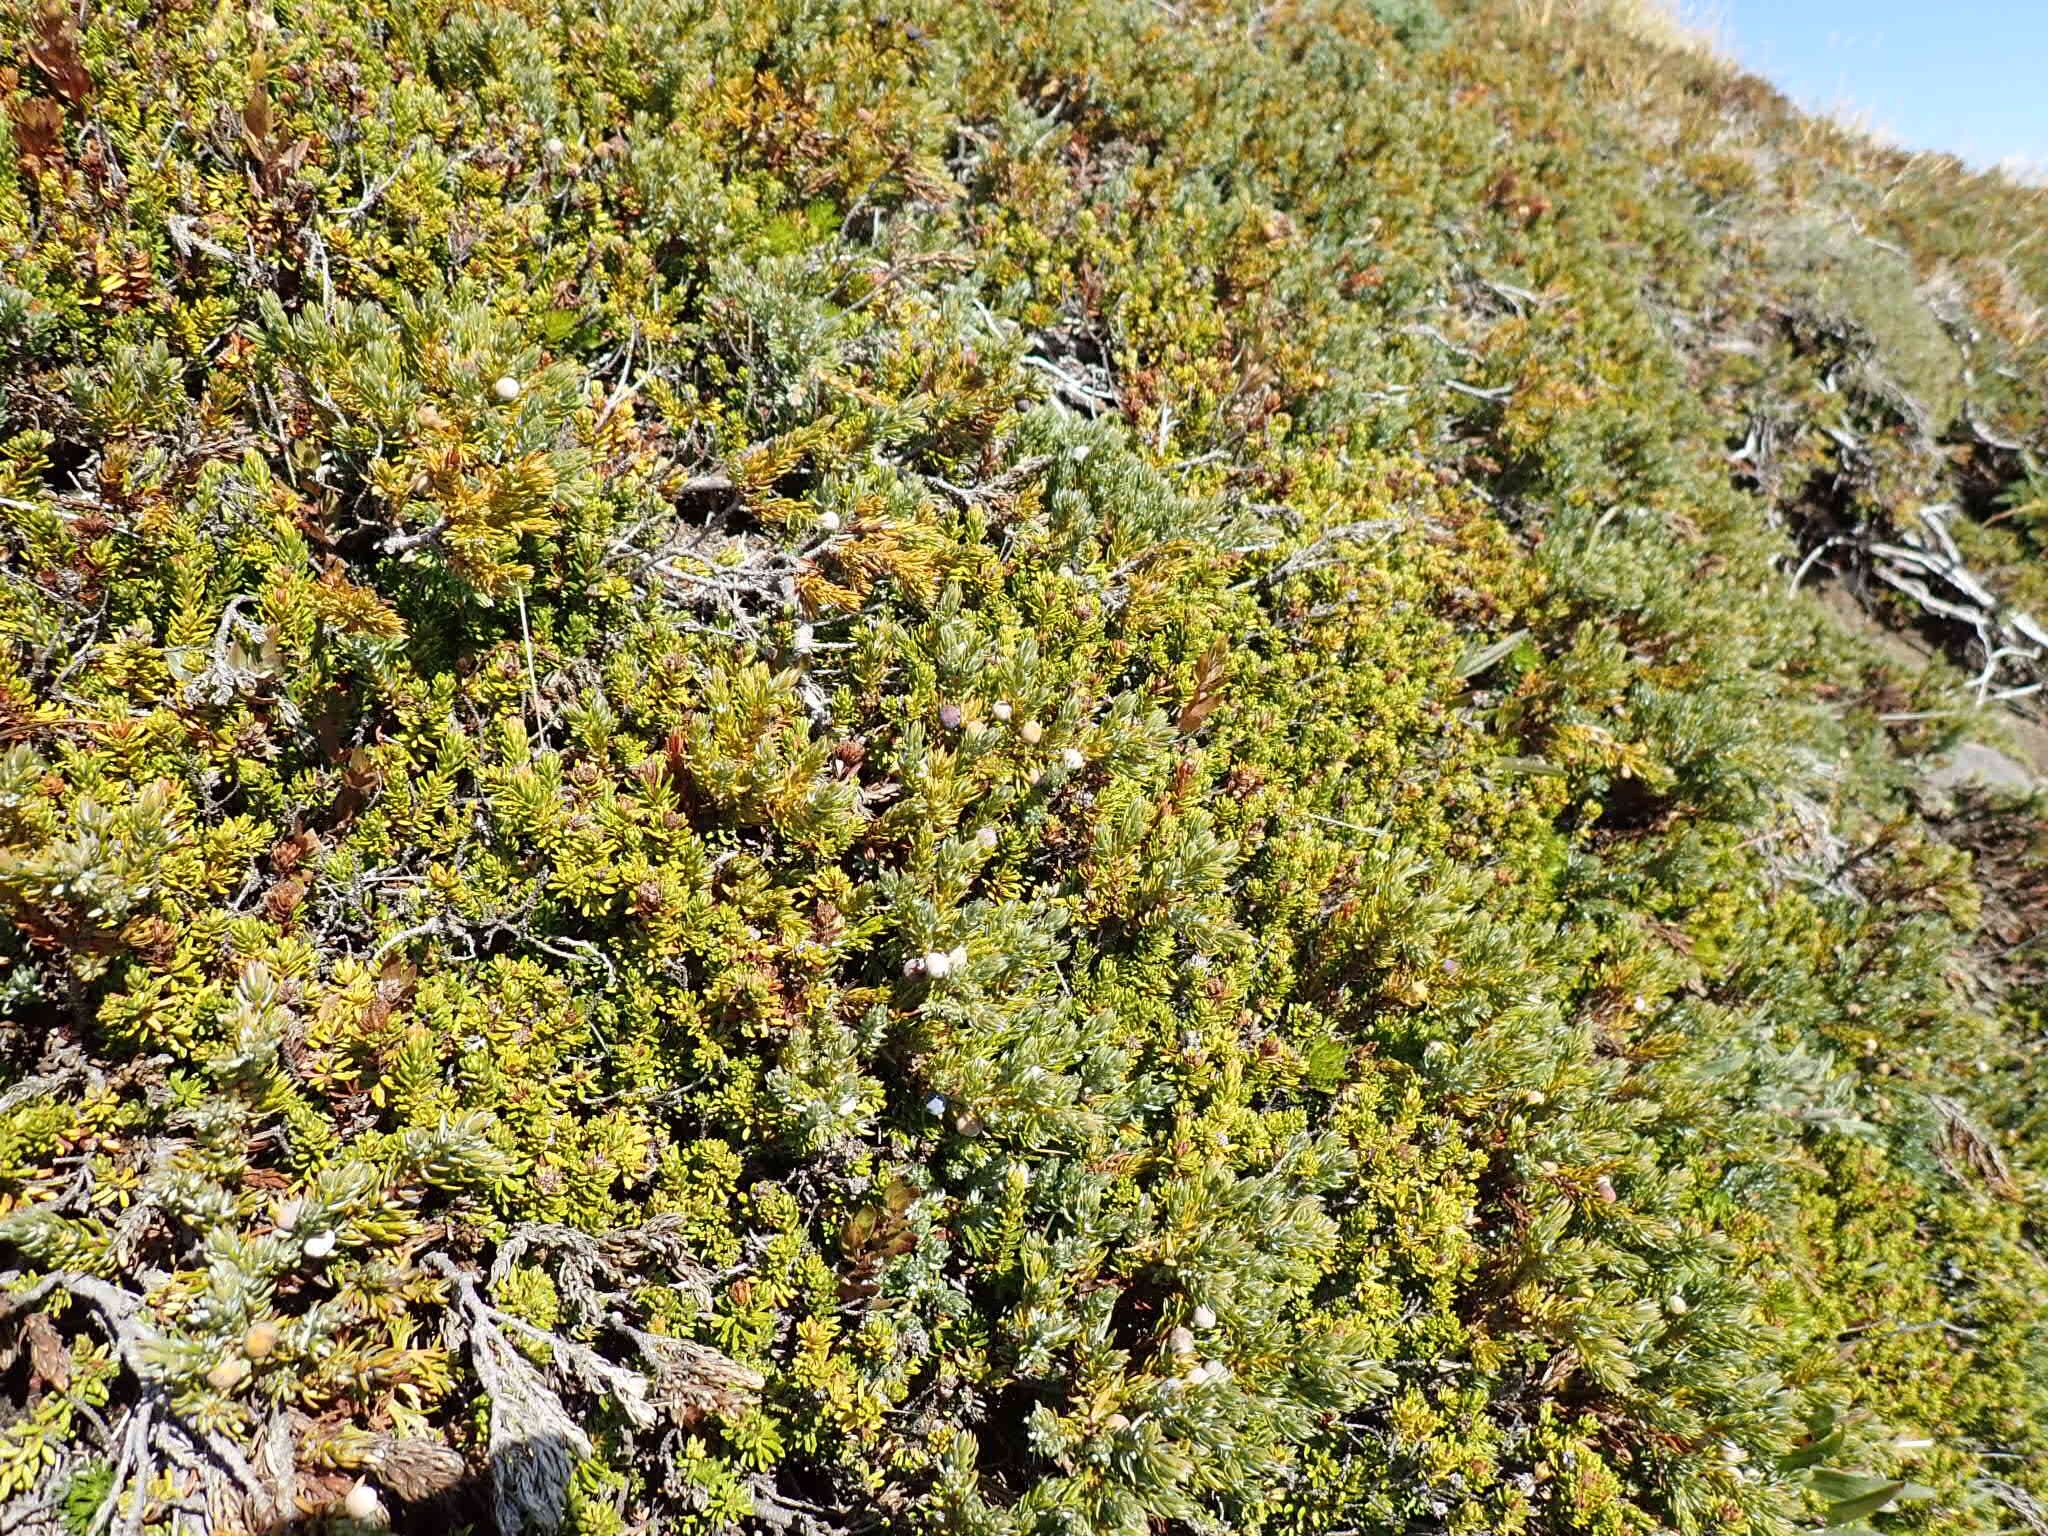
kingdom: Plantae
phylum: Tracheophyta
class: Pinopsida
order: Pinales
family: Cupressaceae
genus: Juniperus
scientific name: Juniperus communis
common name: Common juniper
